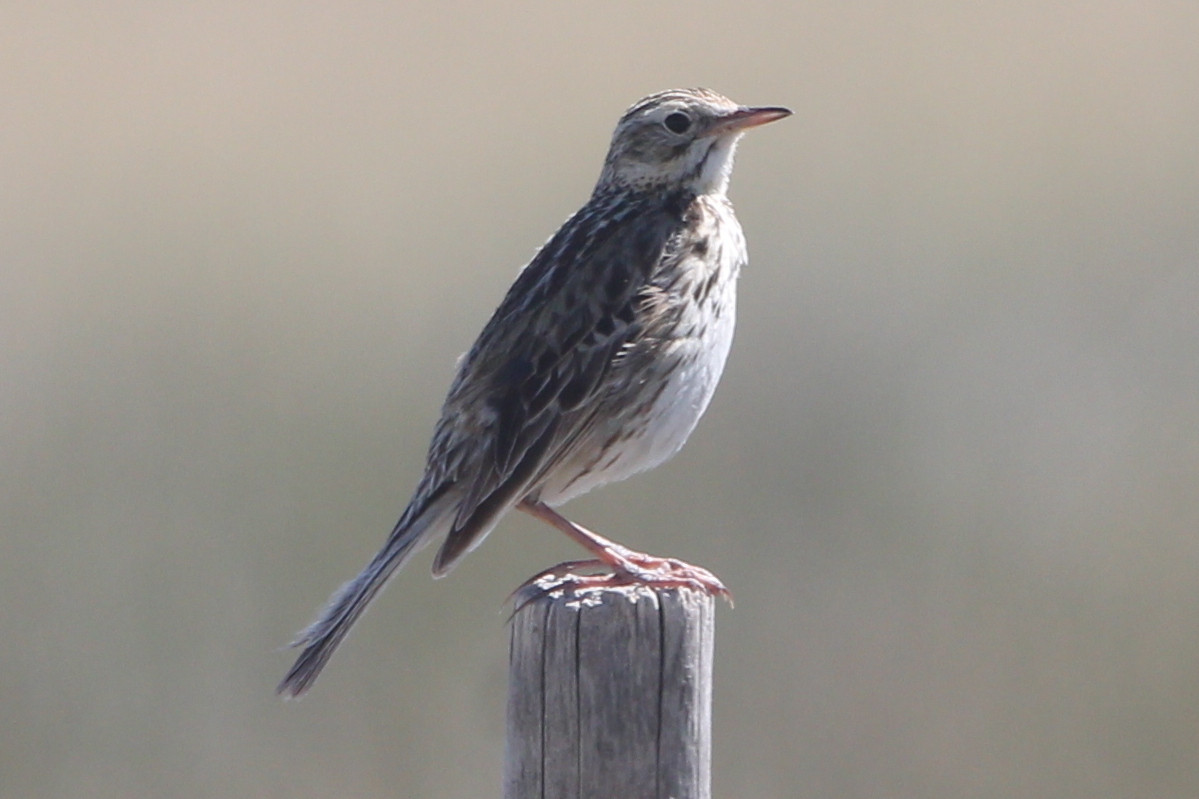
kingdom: Animalia
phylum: Chordata
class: Aves
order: Passeriformes
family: Motacillidae
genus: Anthus
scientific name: Anthus correndera
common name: Correndera pipit
